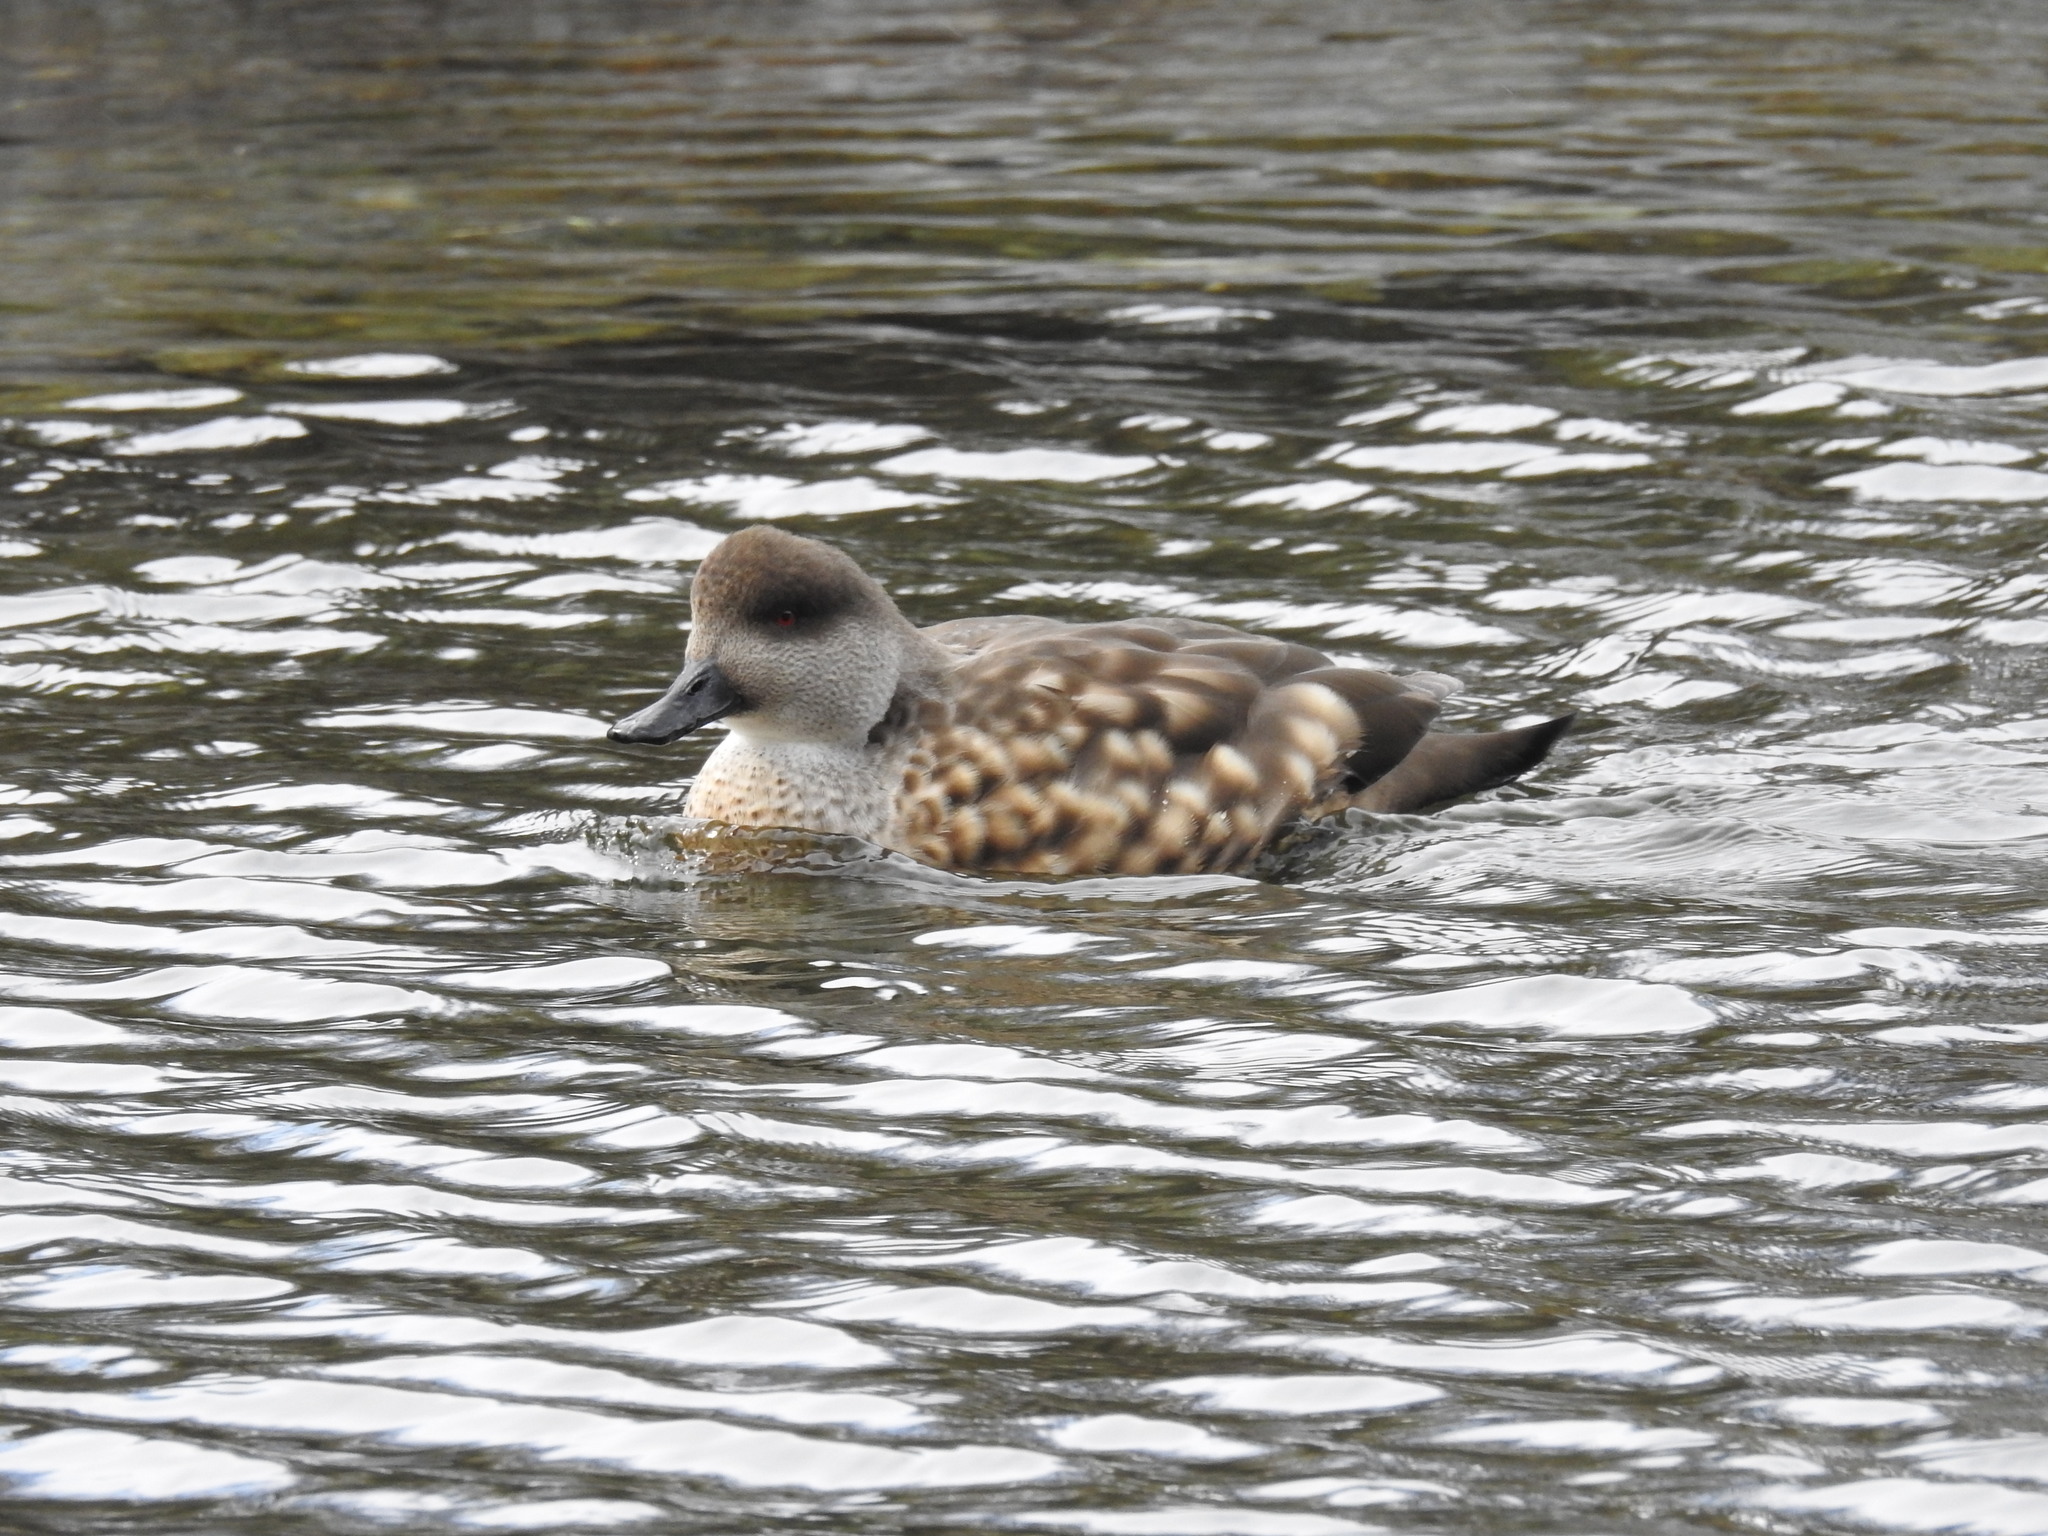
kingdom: Animalia
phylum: Chordata
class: Aves
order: Anseriformes
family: Anatidae
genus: Lophonetta
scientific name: Lophonetta specularioides
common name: Crested duck
